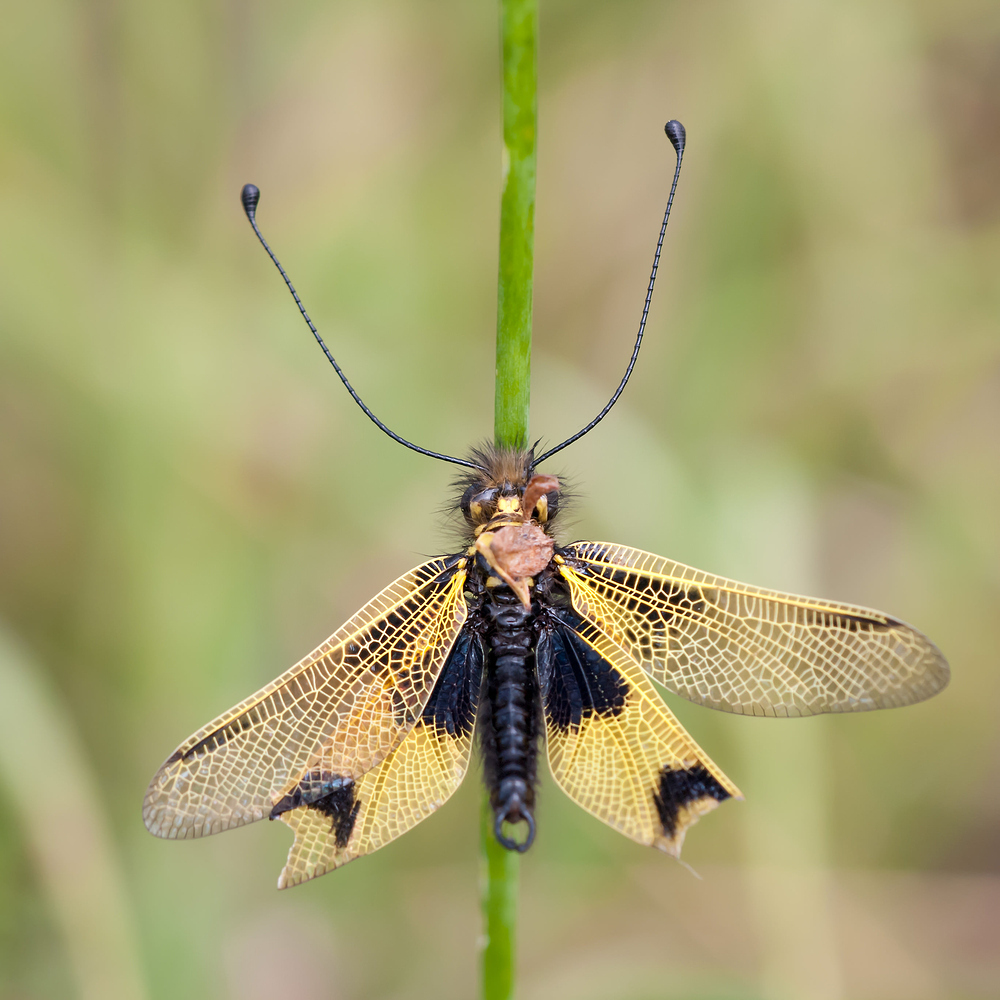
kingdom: Animalia
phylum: Arthropoda
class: Insecta
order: Neuroptera
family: Ascalaphidae
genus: Libelloides
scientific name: Libelloides longicornis
